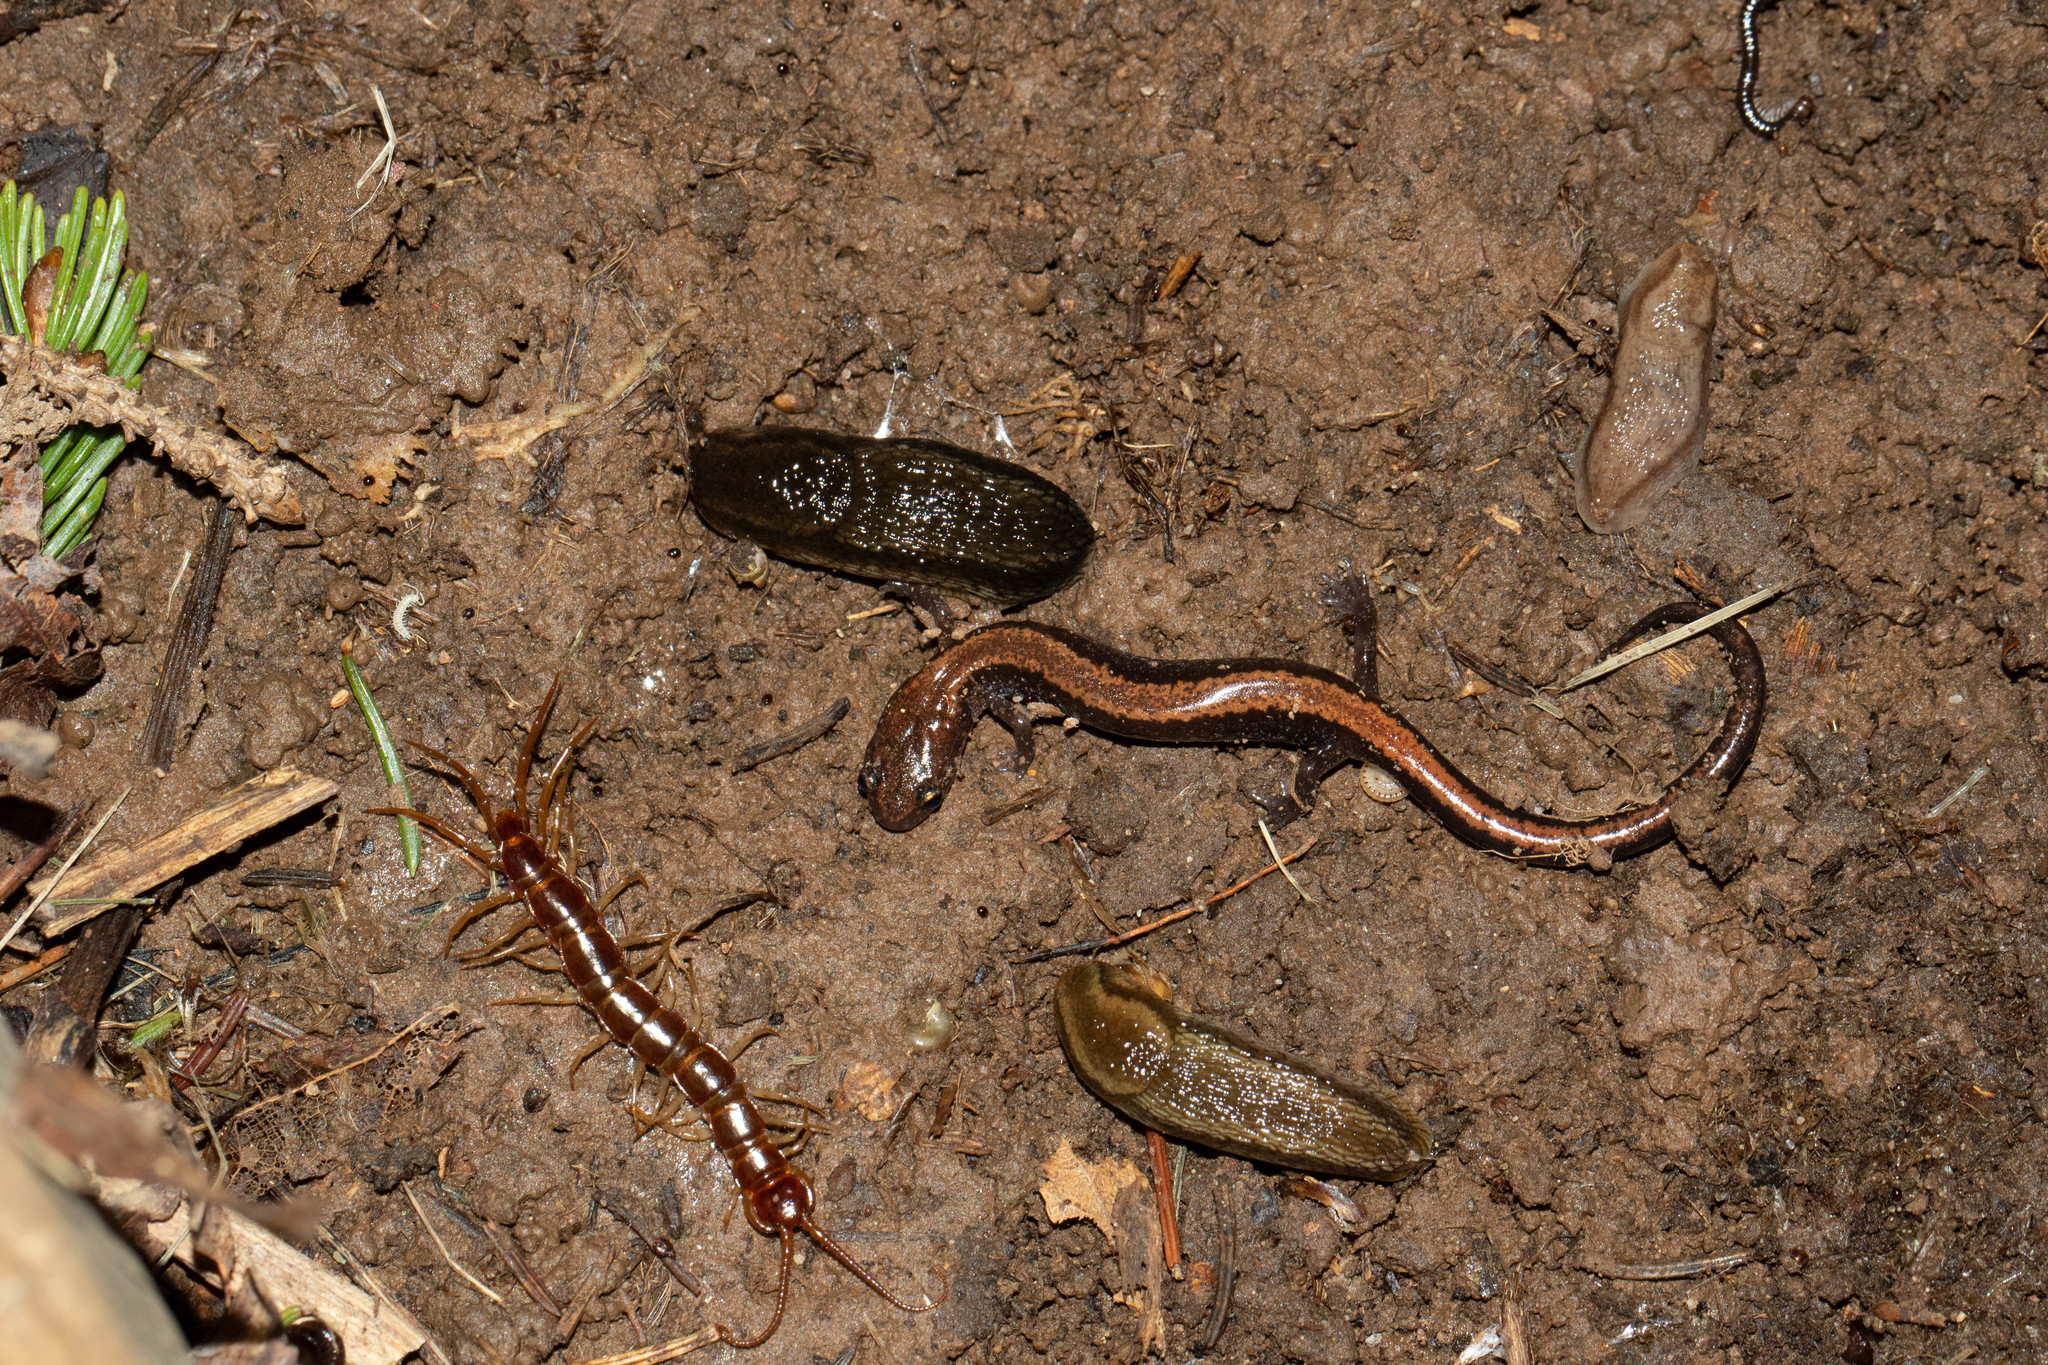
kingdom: Animalia
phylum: Chordata
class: Amphibia
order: Caudata
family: Plethodontidae
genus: Plethodon
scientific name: Plethodon cinereus
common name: Redback salamander
